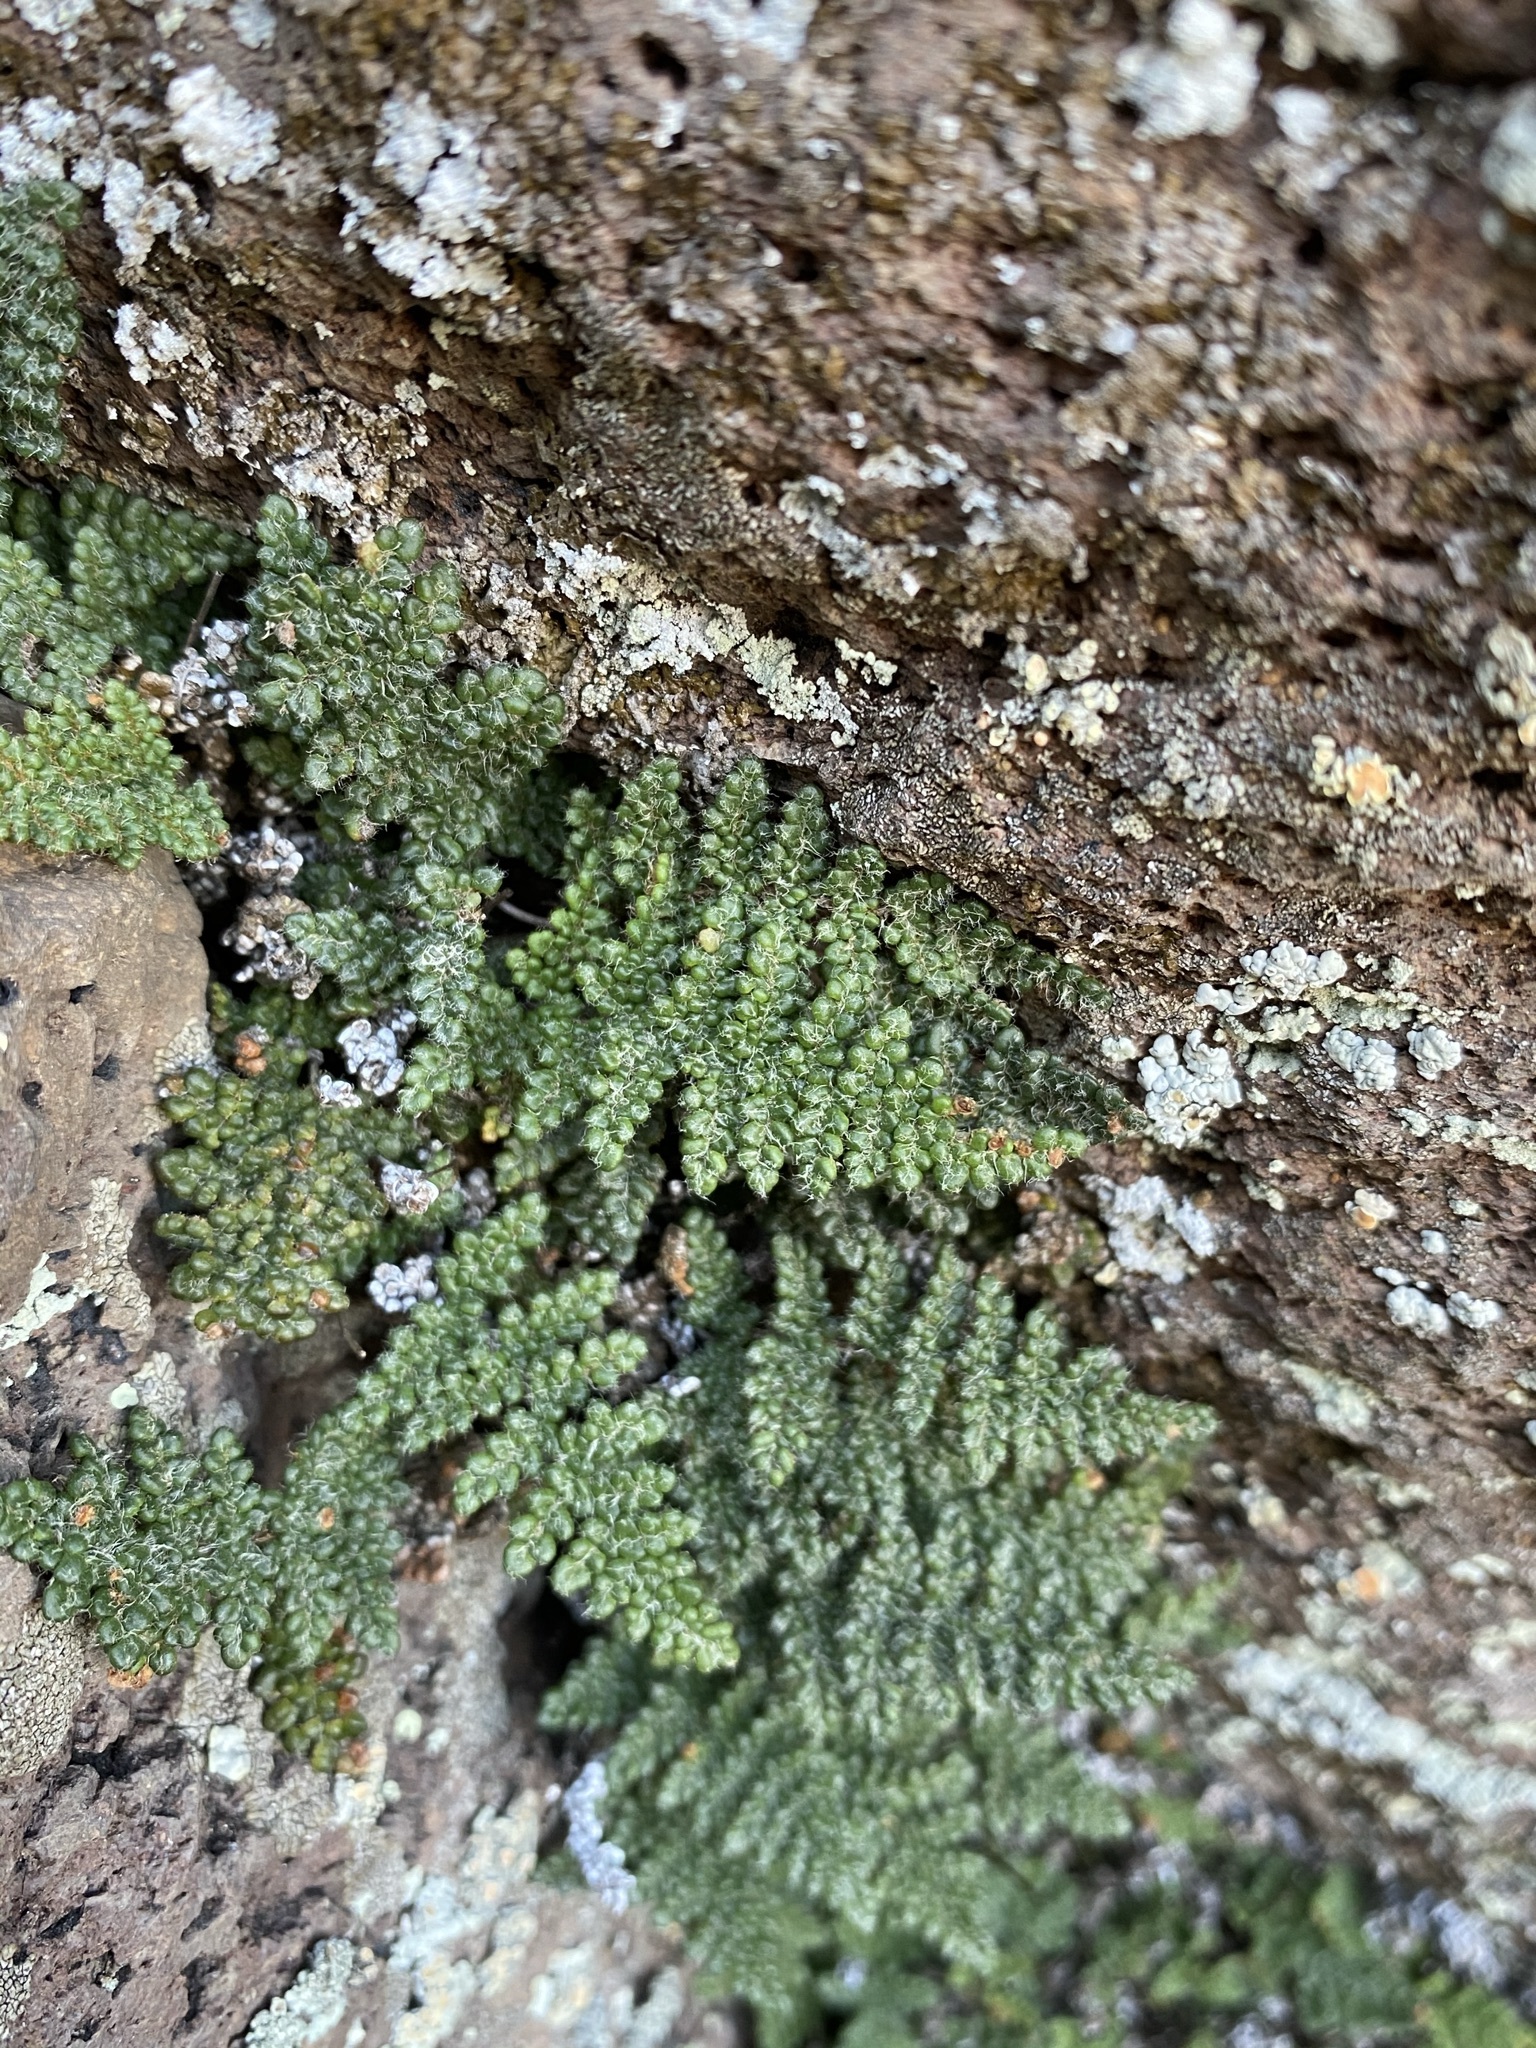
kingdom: Plantae
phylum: Tracheophyta
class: Polypodiopsida
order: Polypodiales
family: Pteridaceae
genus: Myriopteris
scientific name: Myriopteris intertexta
